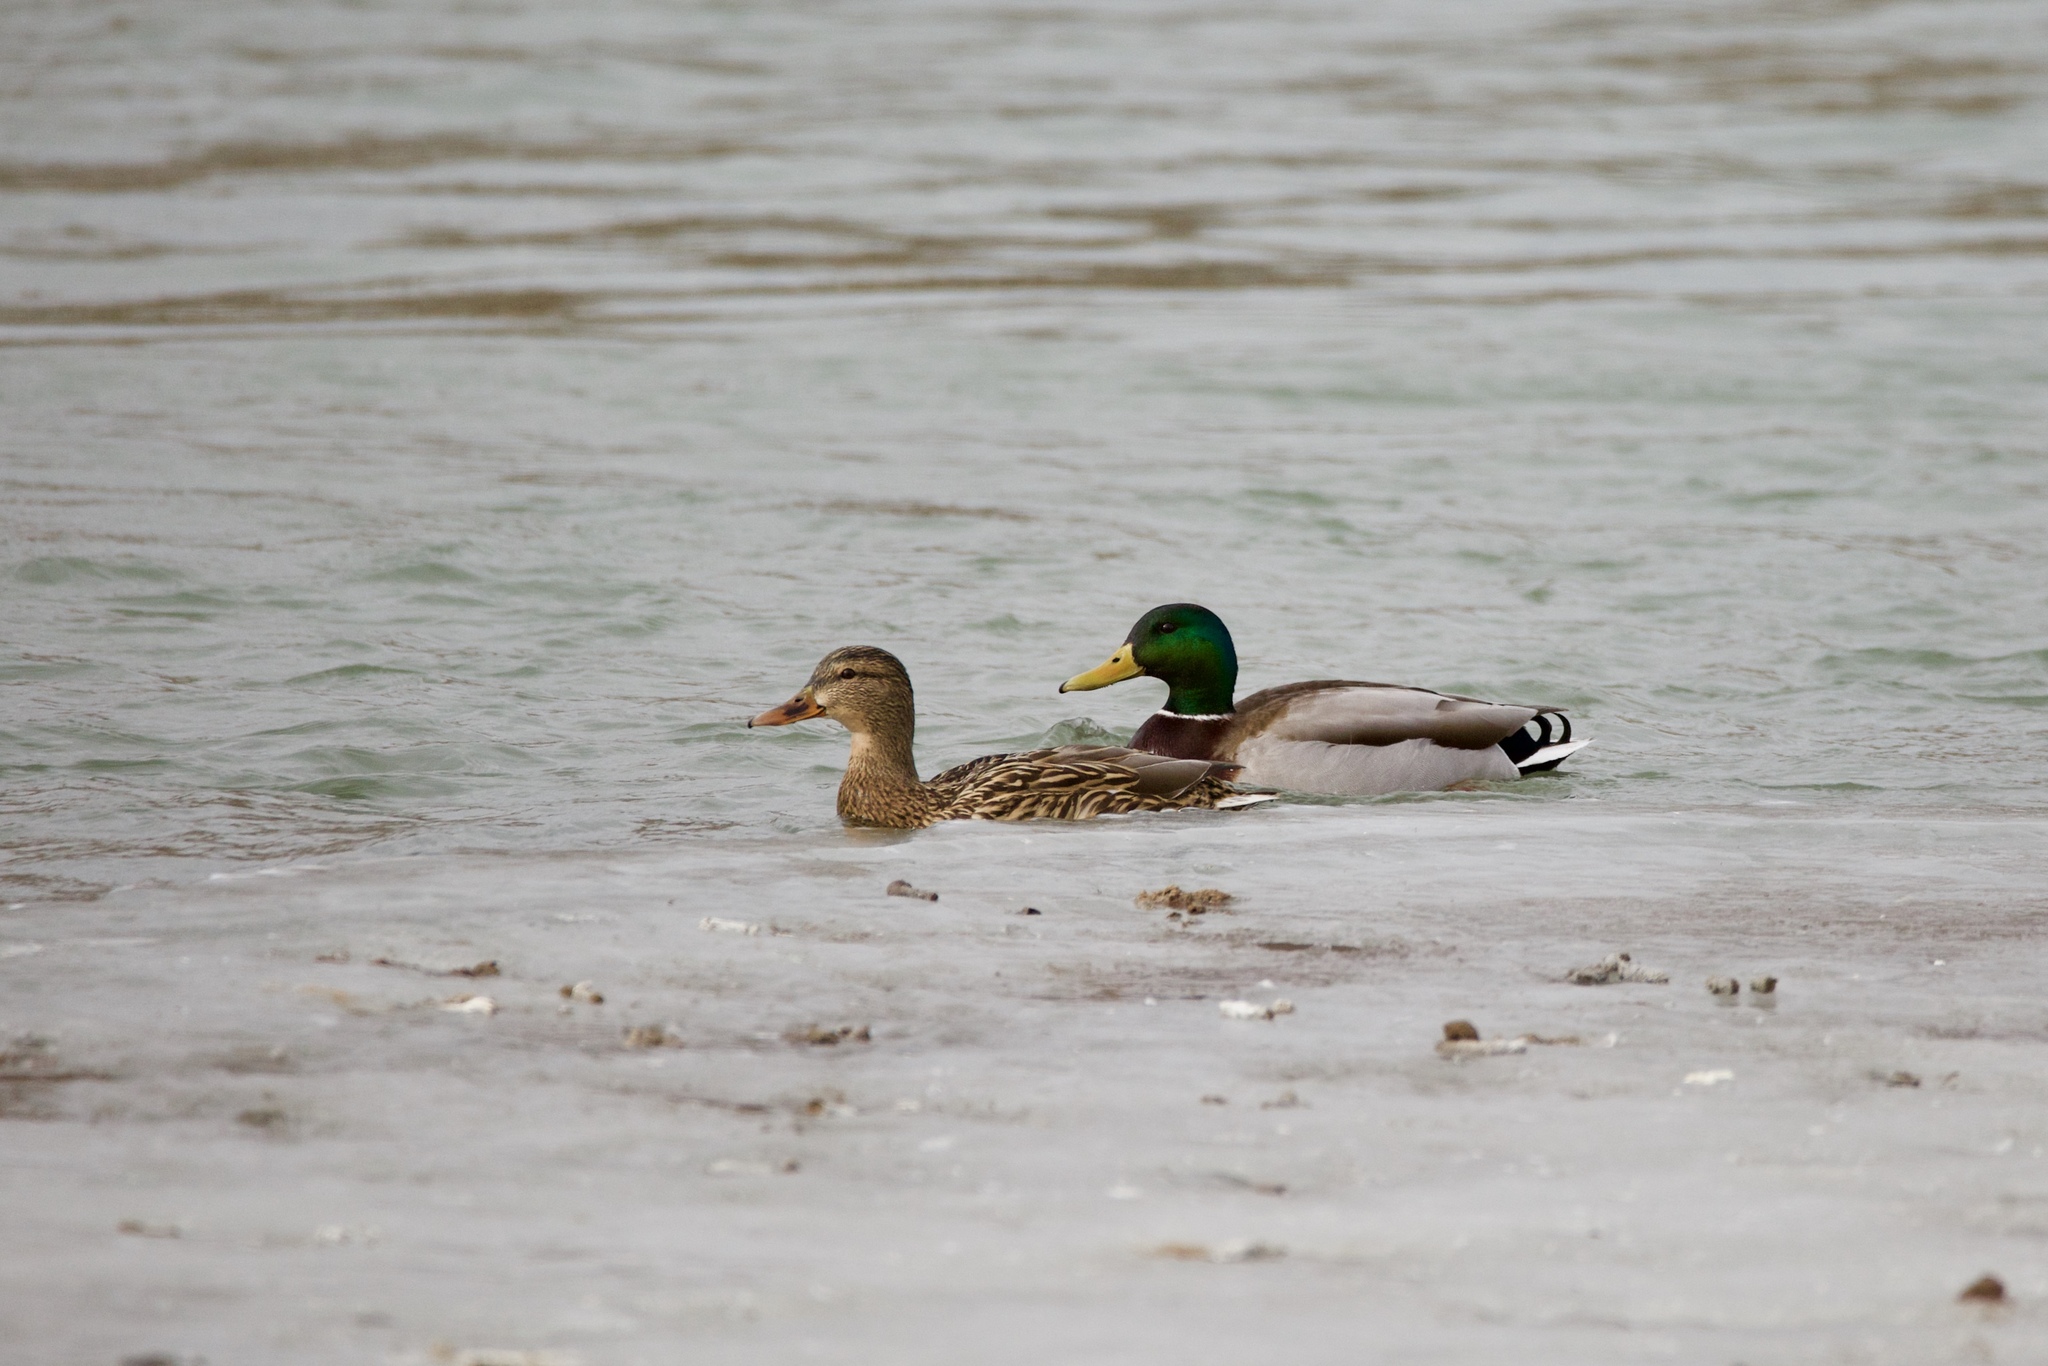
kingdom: Animalia
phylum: Chordata
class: Aves
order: Anseriformes
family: Anatidae
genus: Anas
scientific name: Anas platyrhynchos
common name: Mallard
